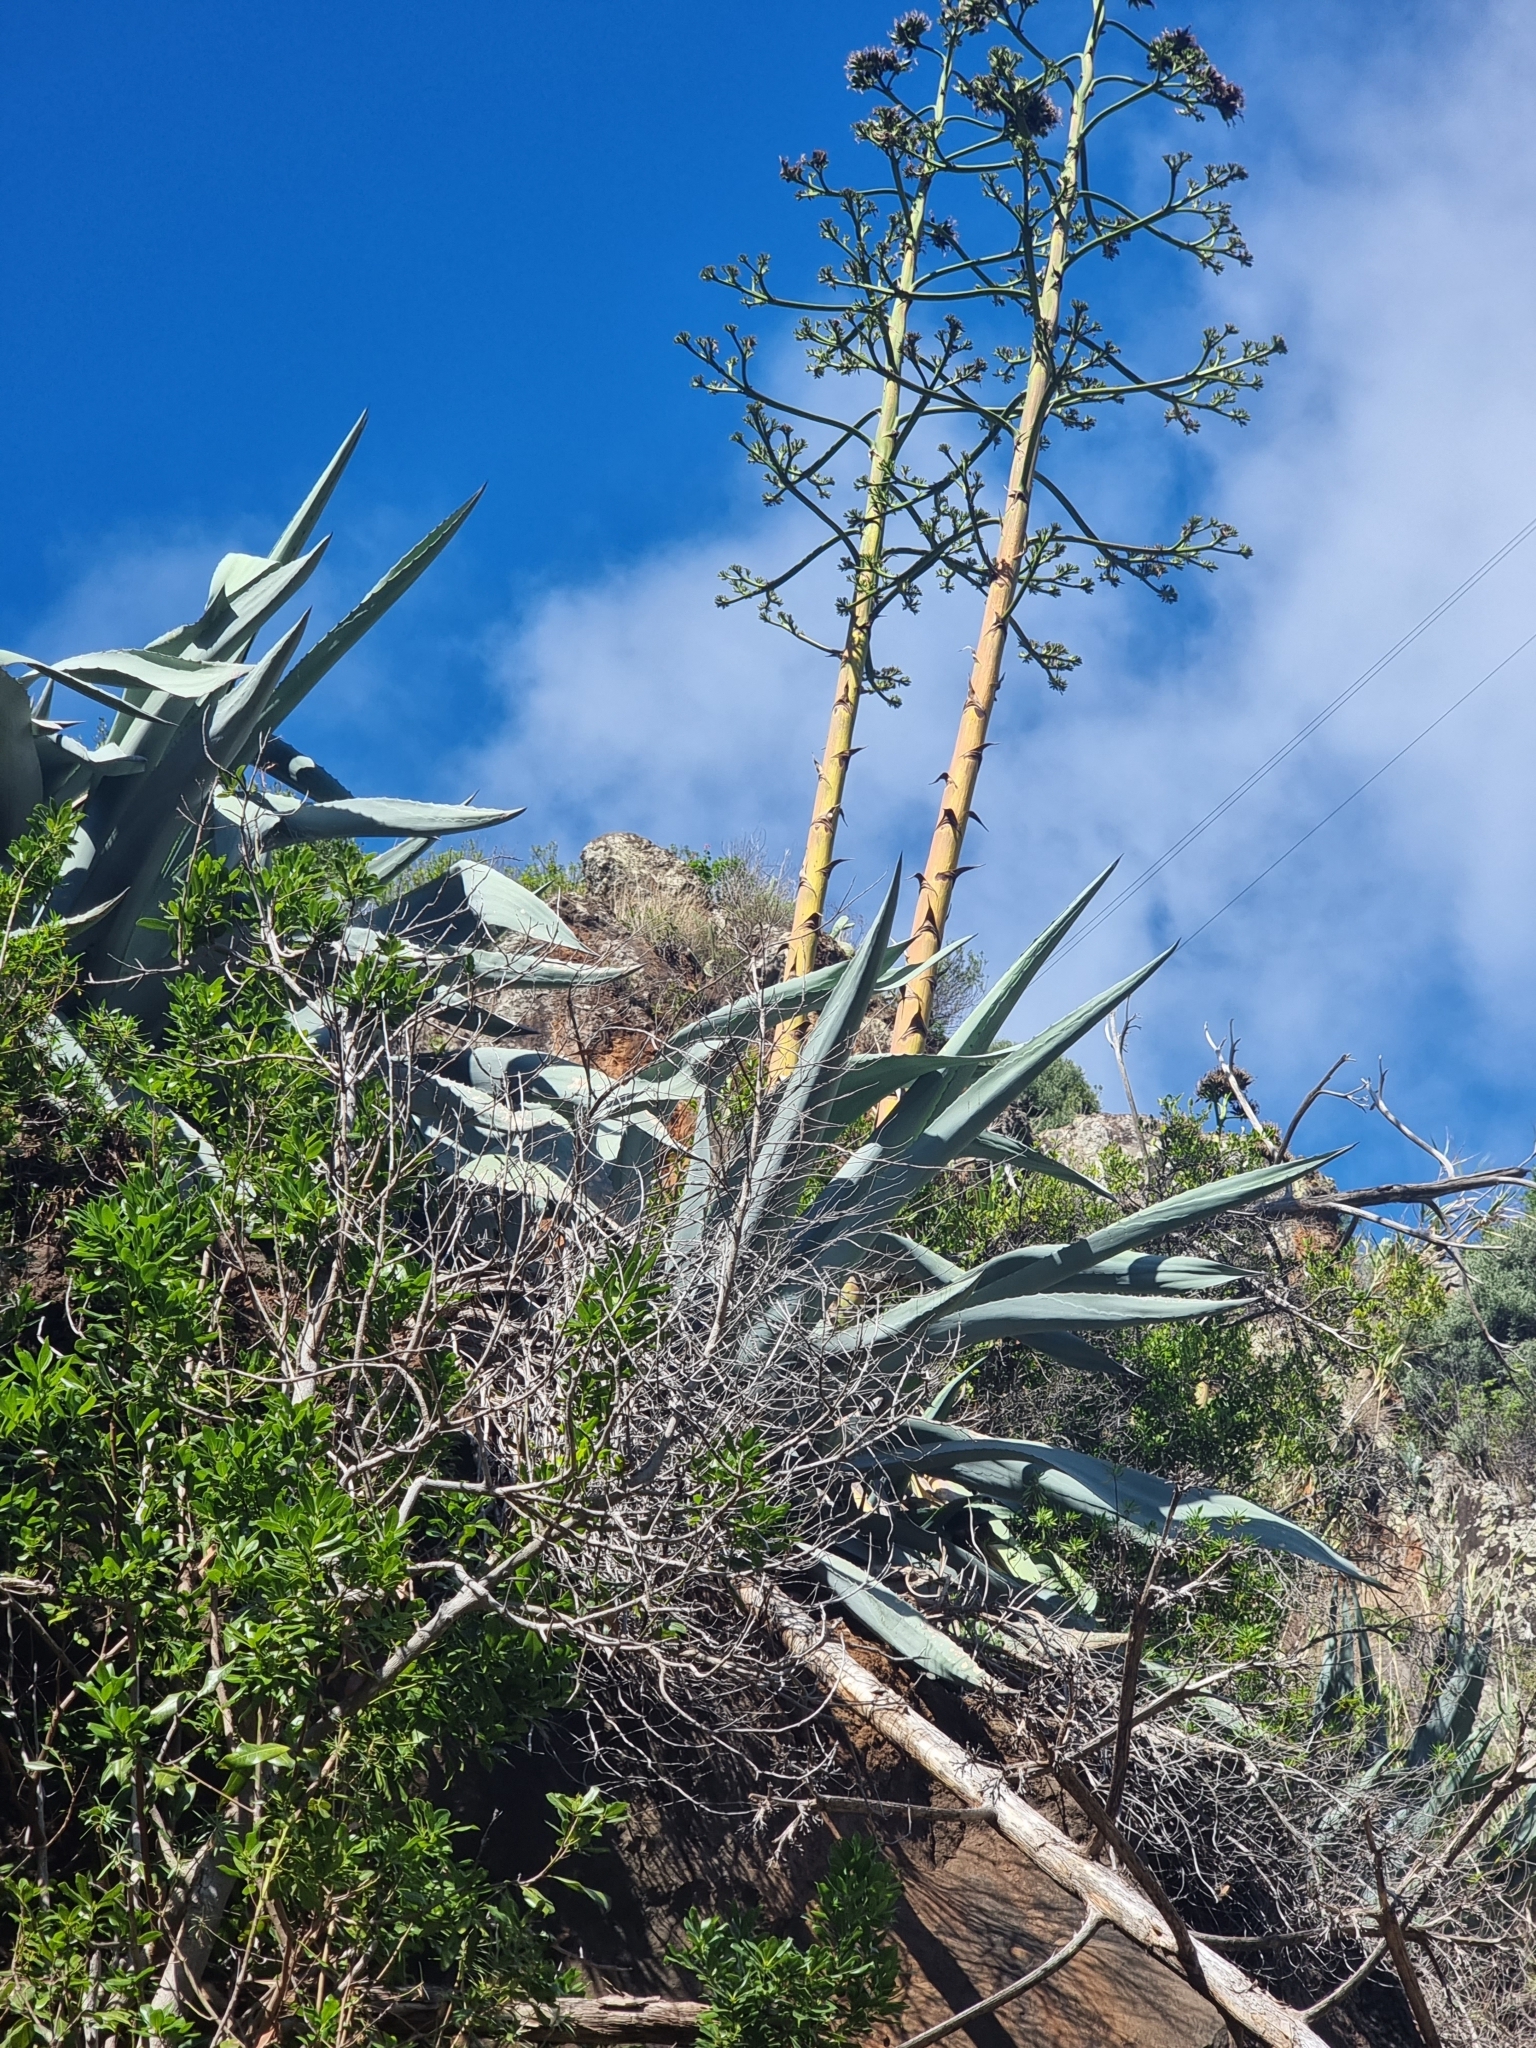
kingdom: Plantae
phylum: Tracheophyta
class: Liliopsida
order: Asparagales
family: Asparagaceae
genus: Agave
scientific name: Agave americana
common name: Centuryplant
